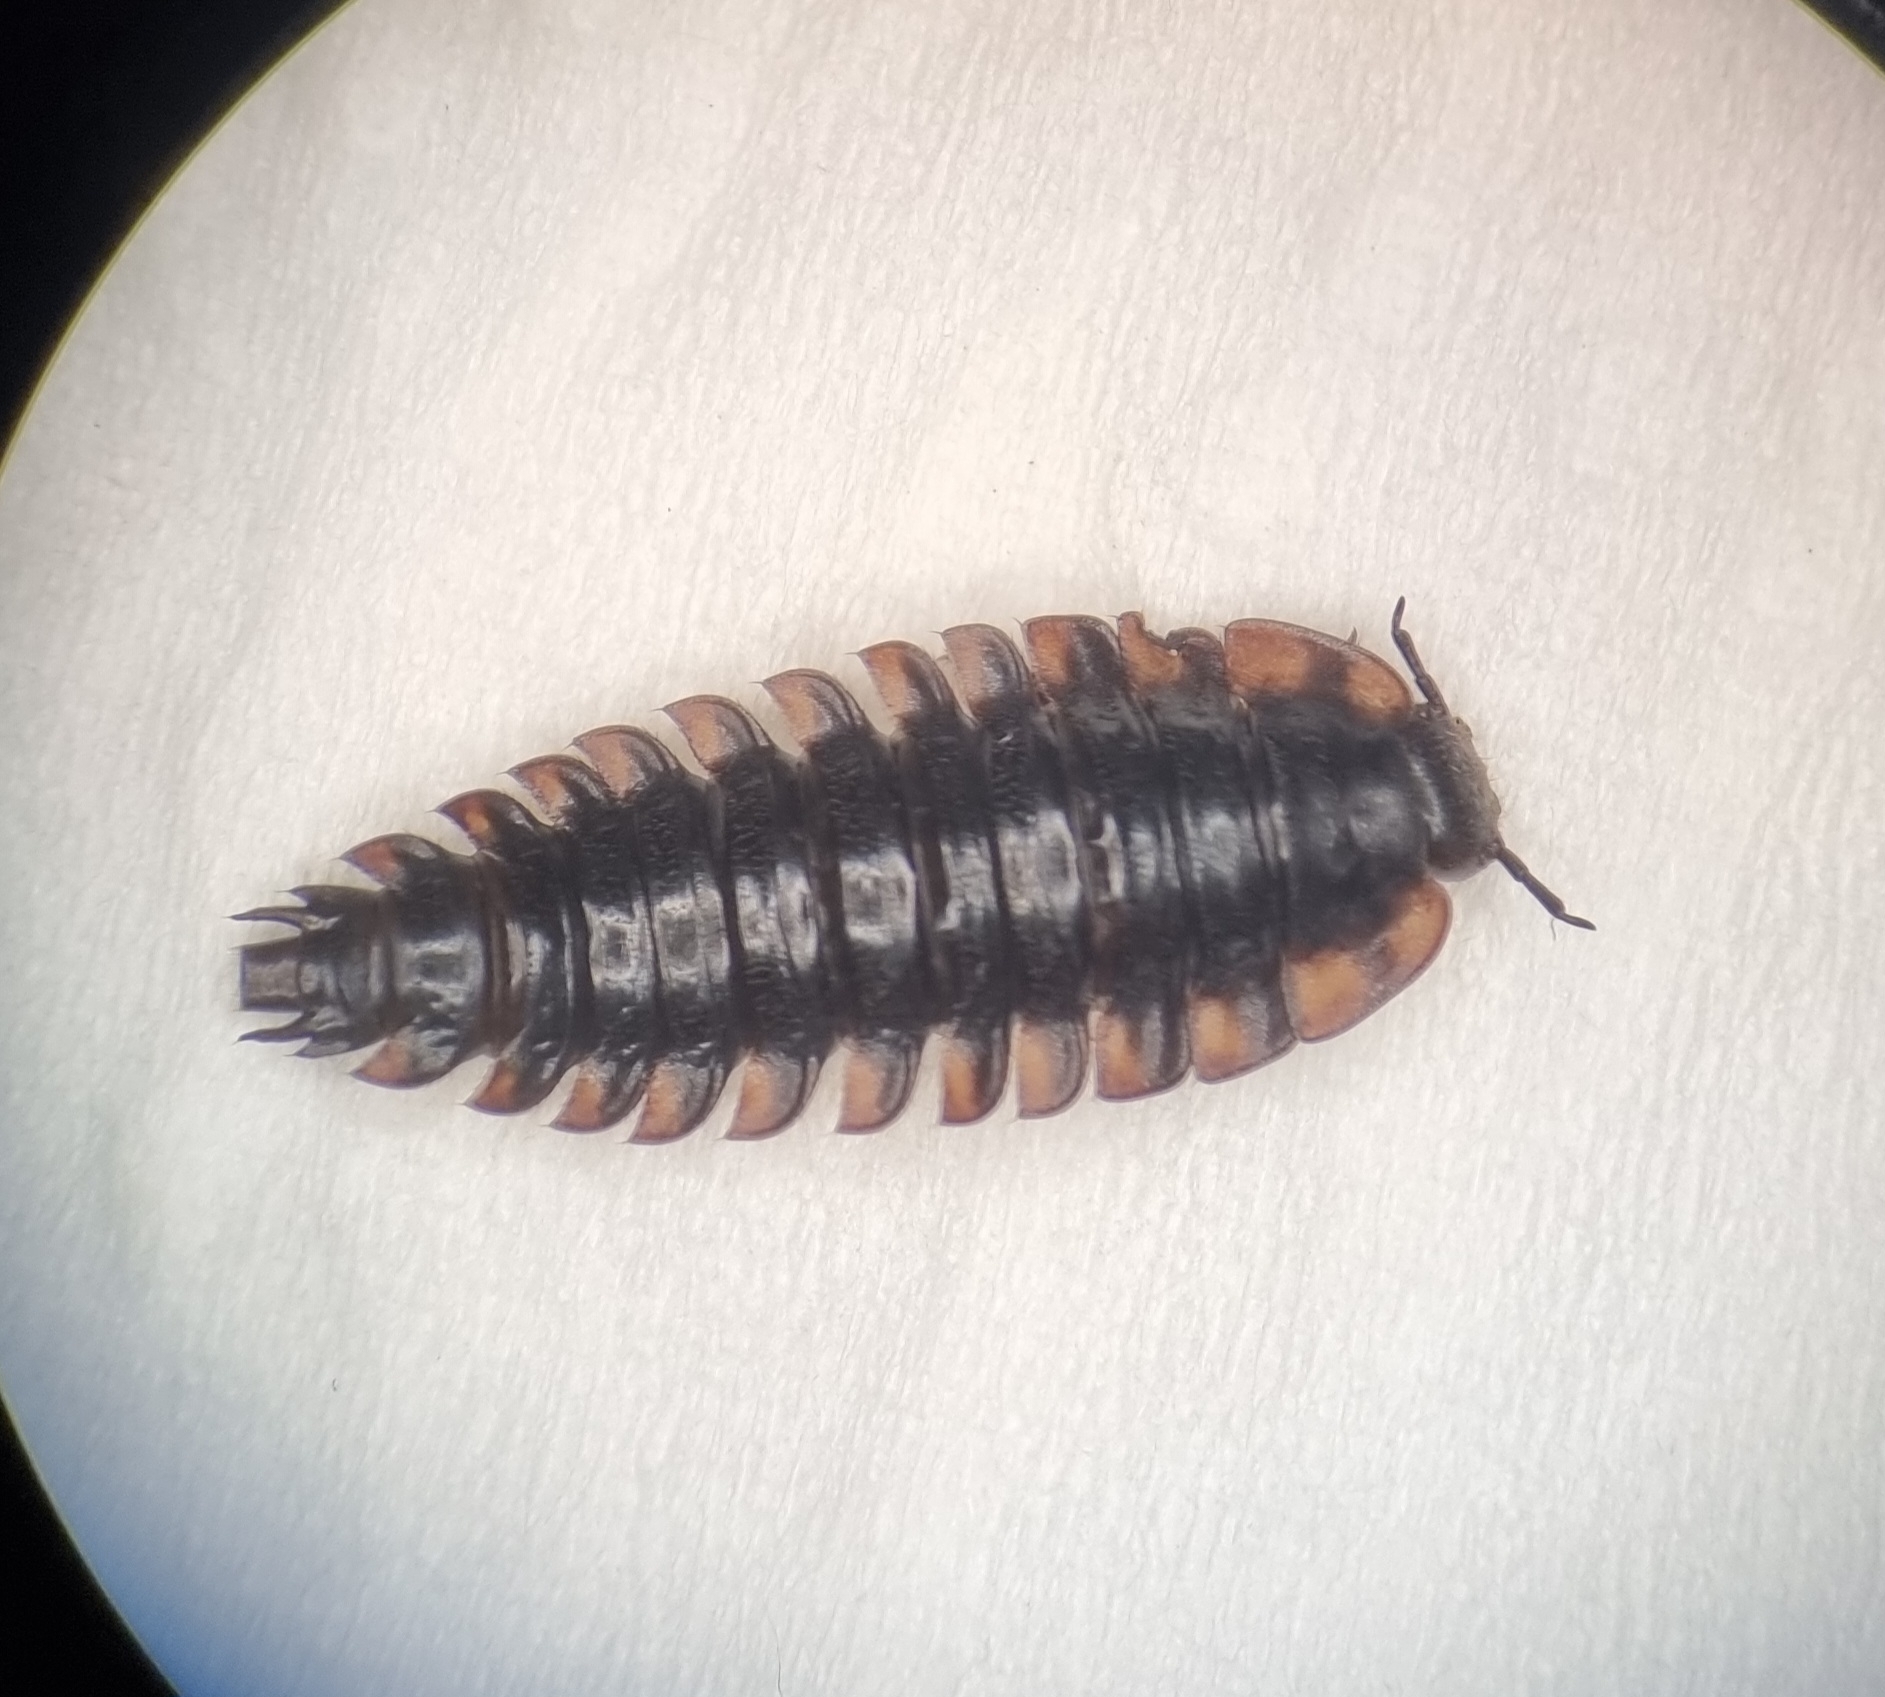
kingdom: Animalia
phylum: Arthropoda
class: Insecta
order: Coleoptera
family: Staphylinidae
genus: Oiceoptoma
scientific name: Oiceoptoma thoracicum
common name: Red-breasted carrion beetle
